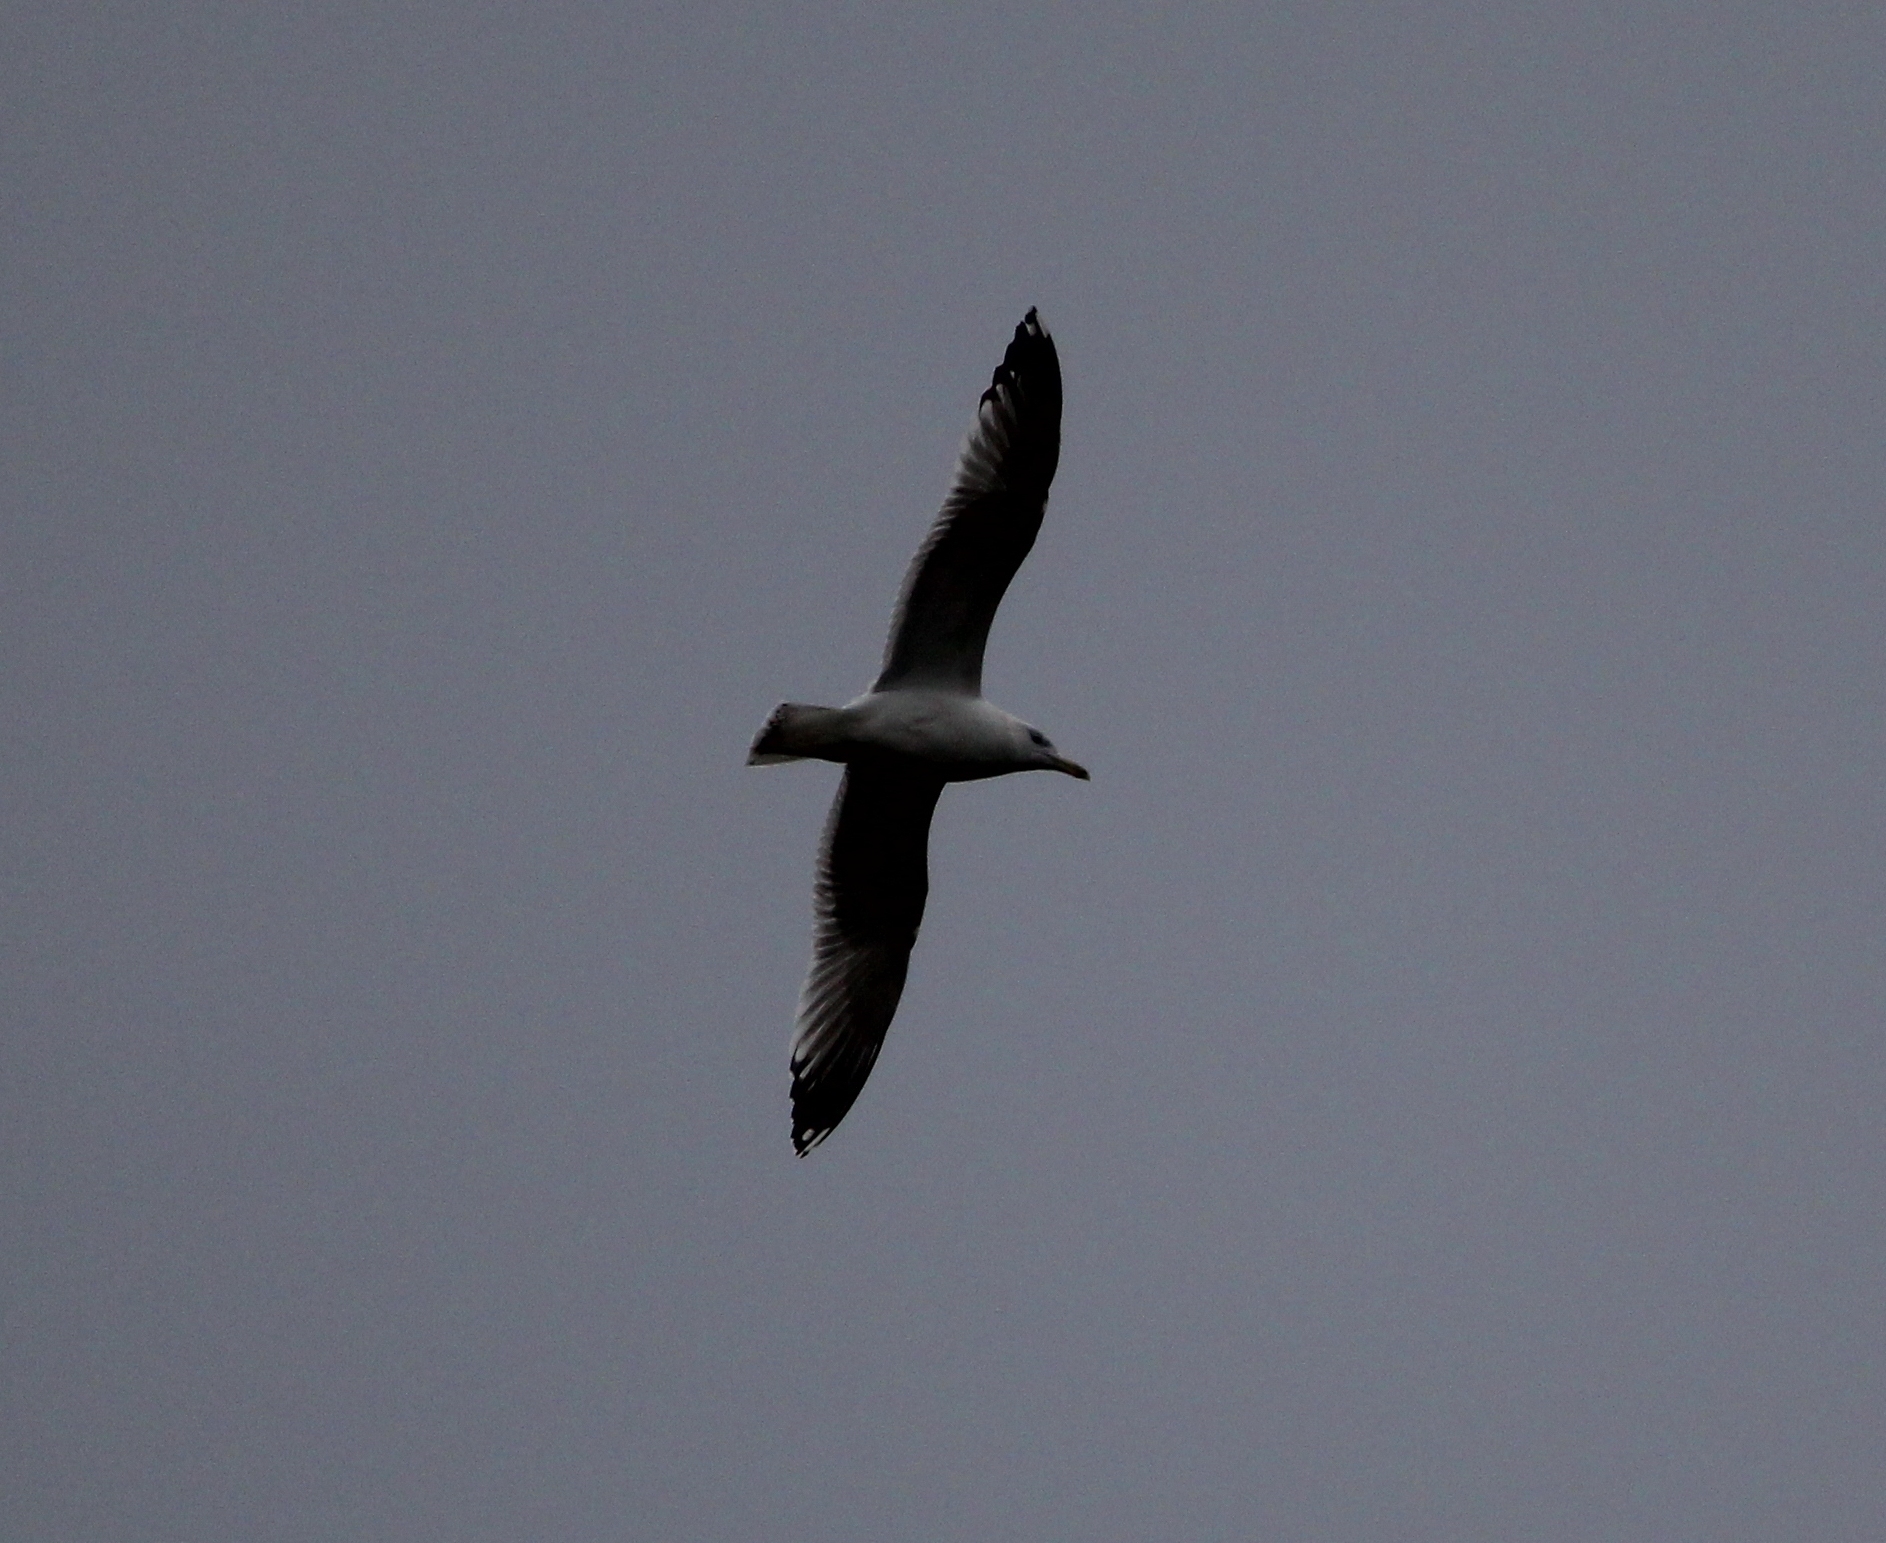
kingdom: Animalia
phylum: Chordata
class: Aves
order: Charadriiformes
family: Laridae
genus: Larus
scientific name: Larus michahellis
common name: Yellow-legged gull
